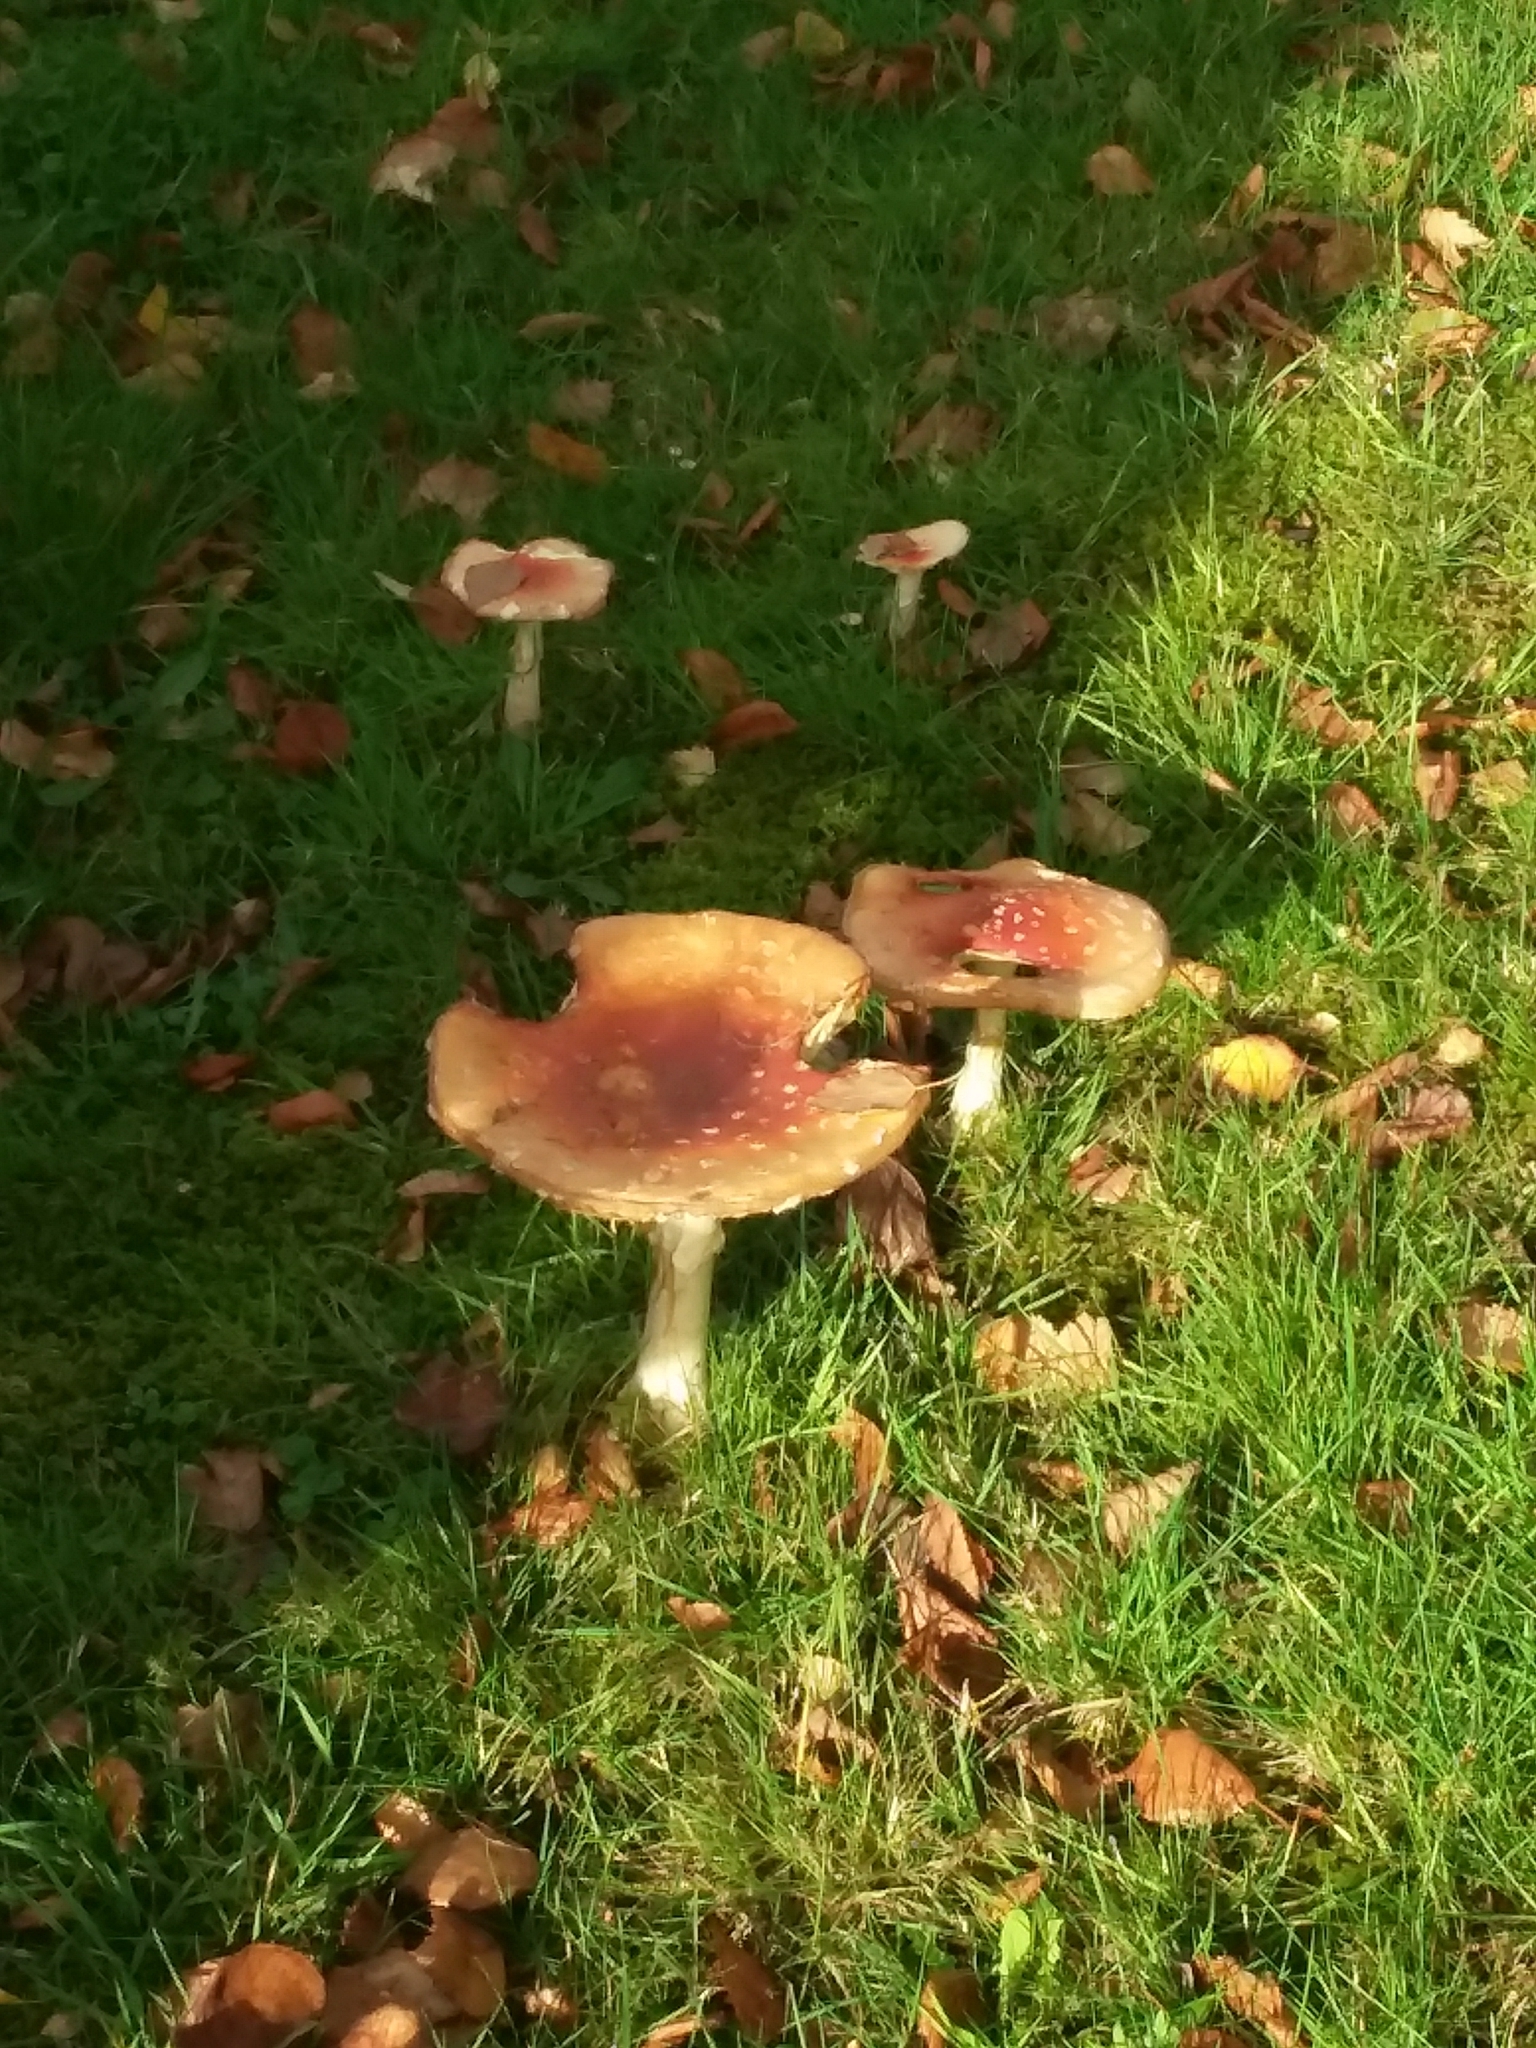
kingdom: Fungi
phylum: Basidiomycota
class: Agaricomycetes
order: Agaricales
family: Amanitaceae
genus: Amanita
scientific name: Amanita muscaria
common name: Fly agaric
